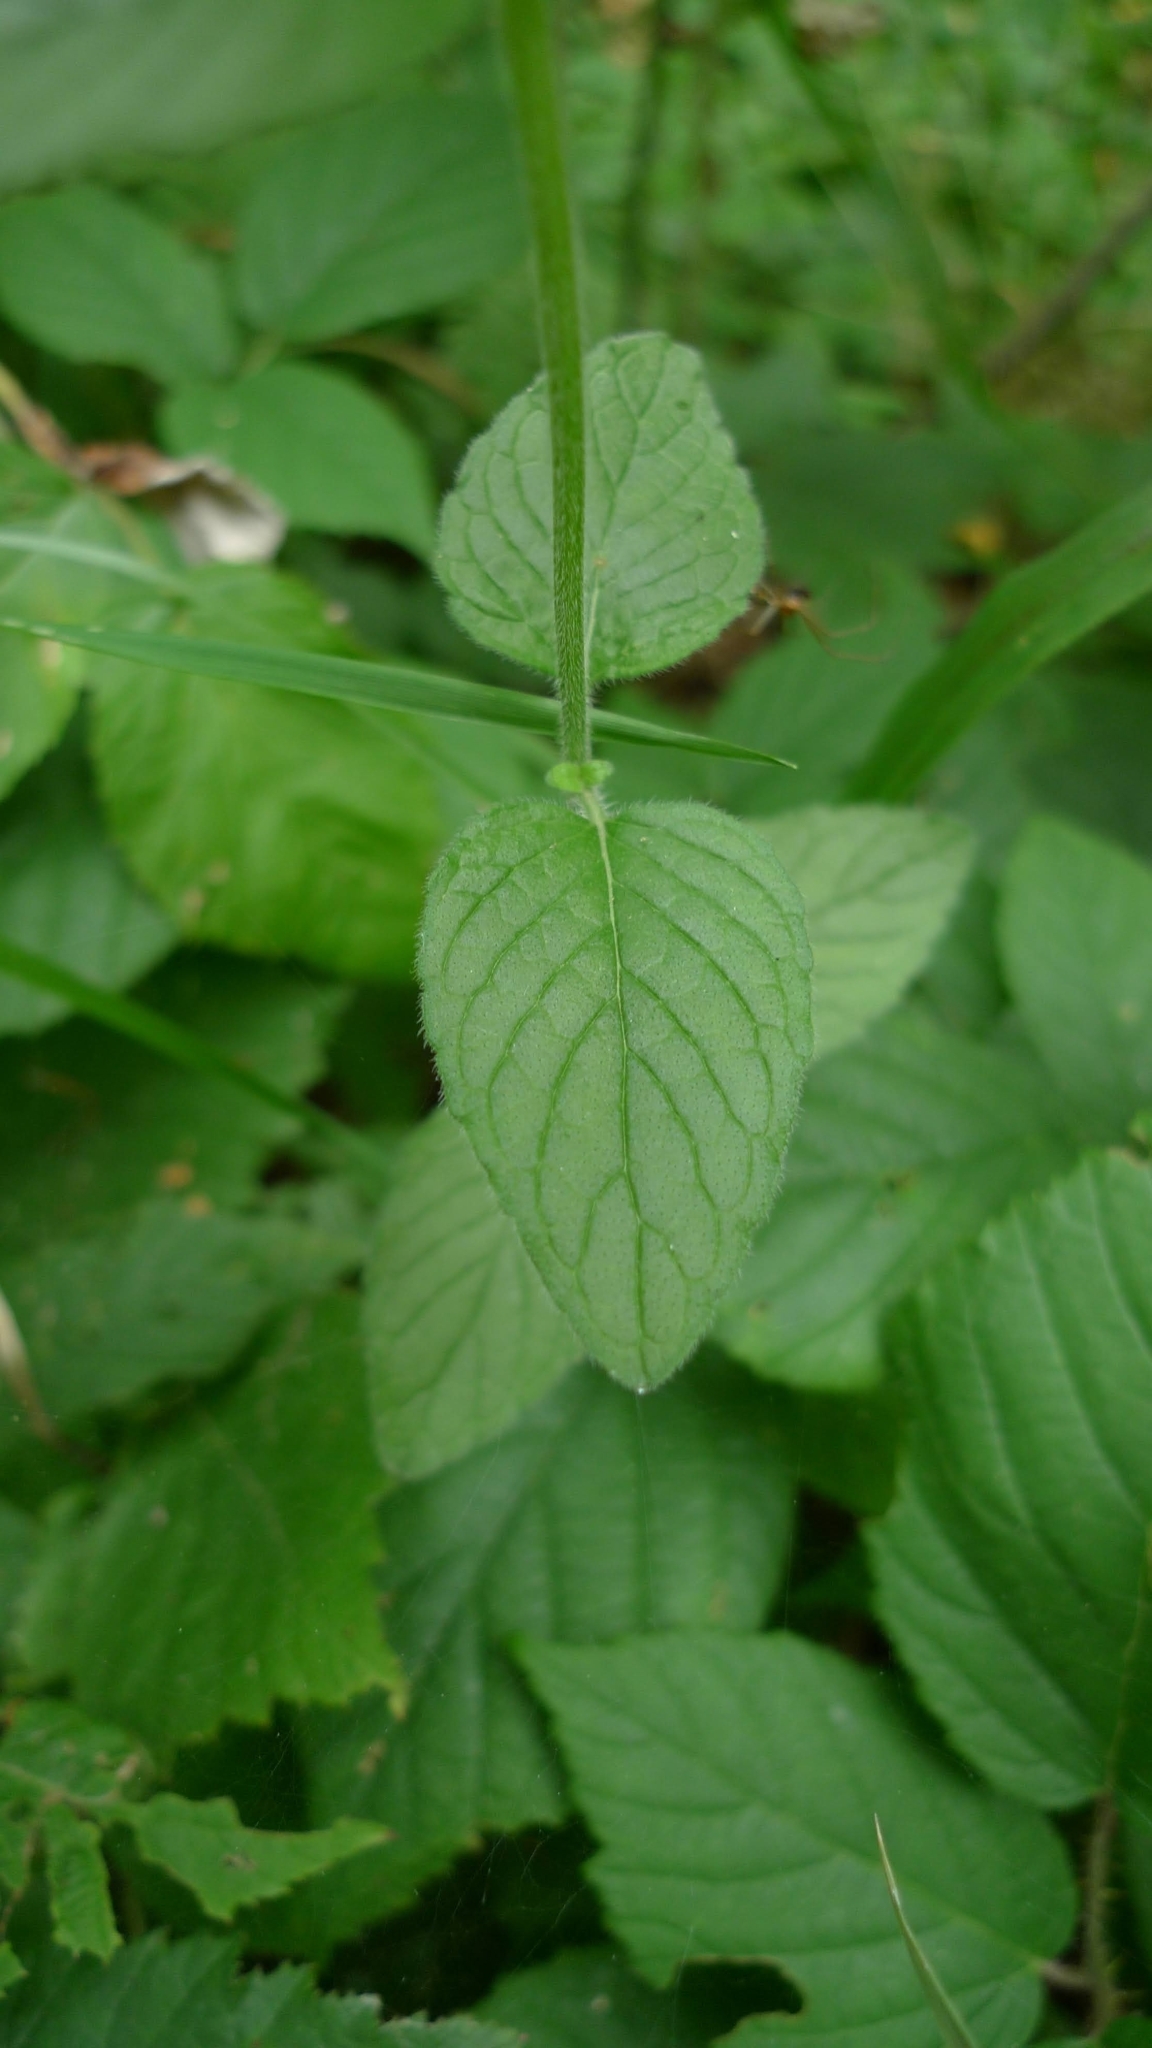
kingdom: Plantae
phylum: Tracheophyta
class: Magnoliopsida
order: Lamiales
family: Lamiaceae
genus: Clinopodium
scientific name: Clinopodium vulgare
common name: Wild basil
